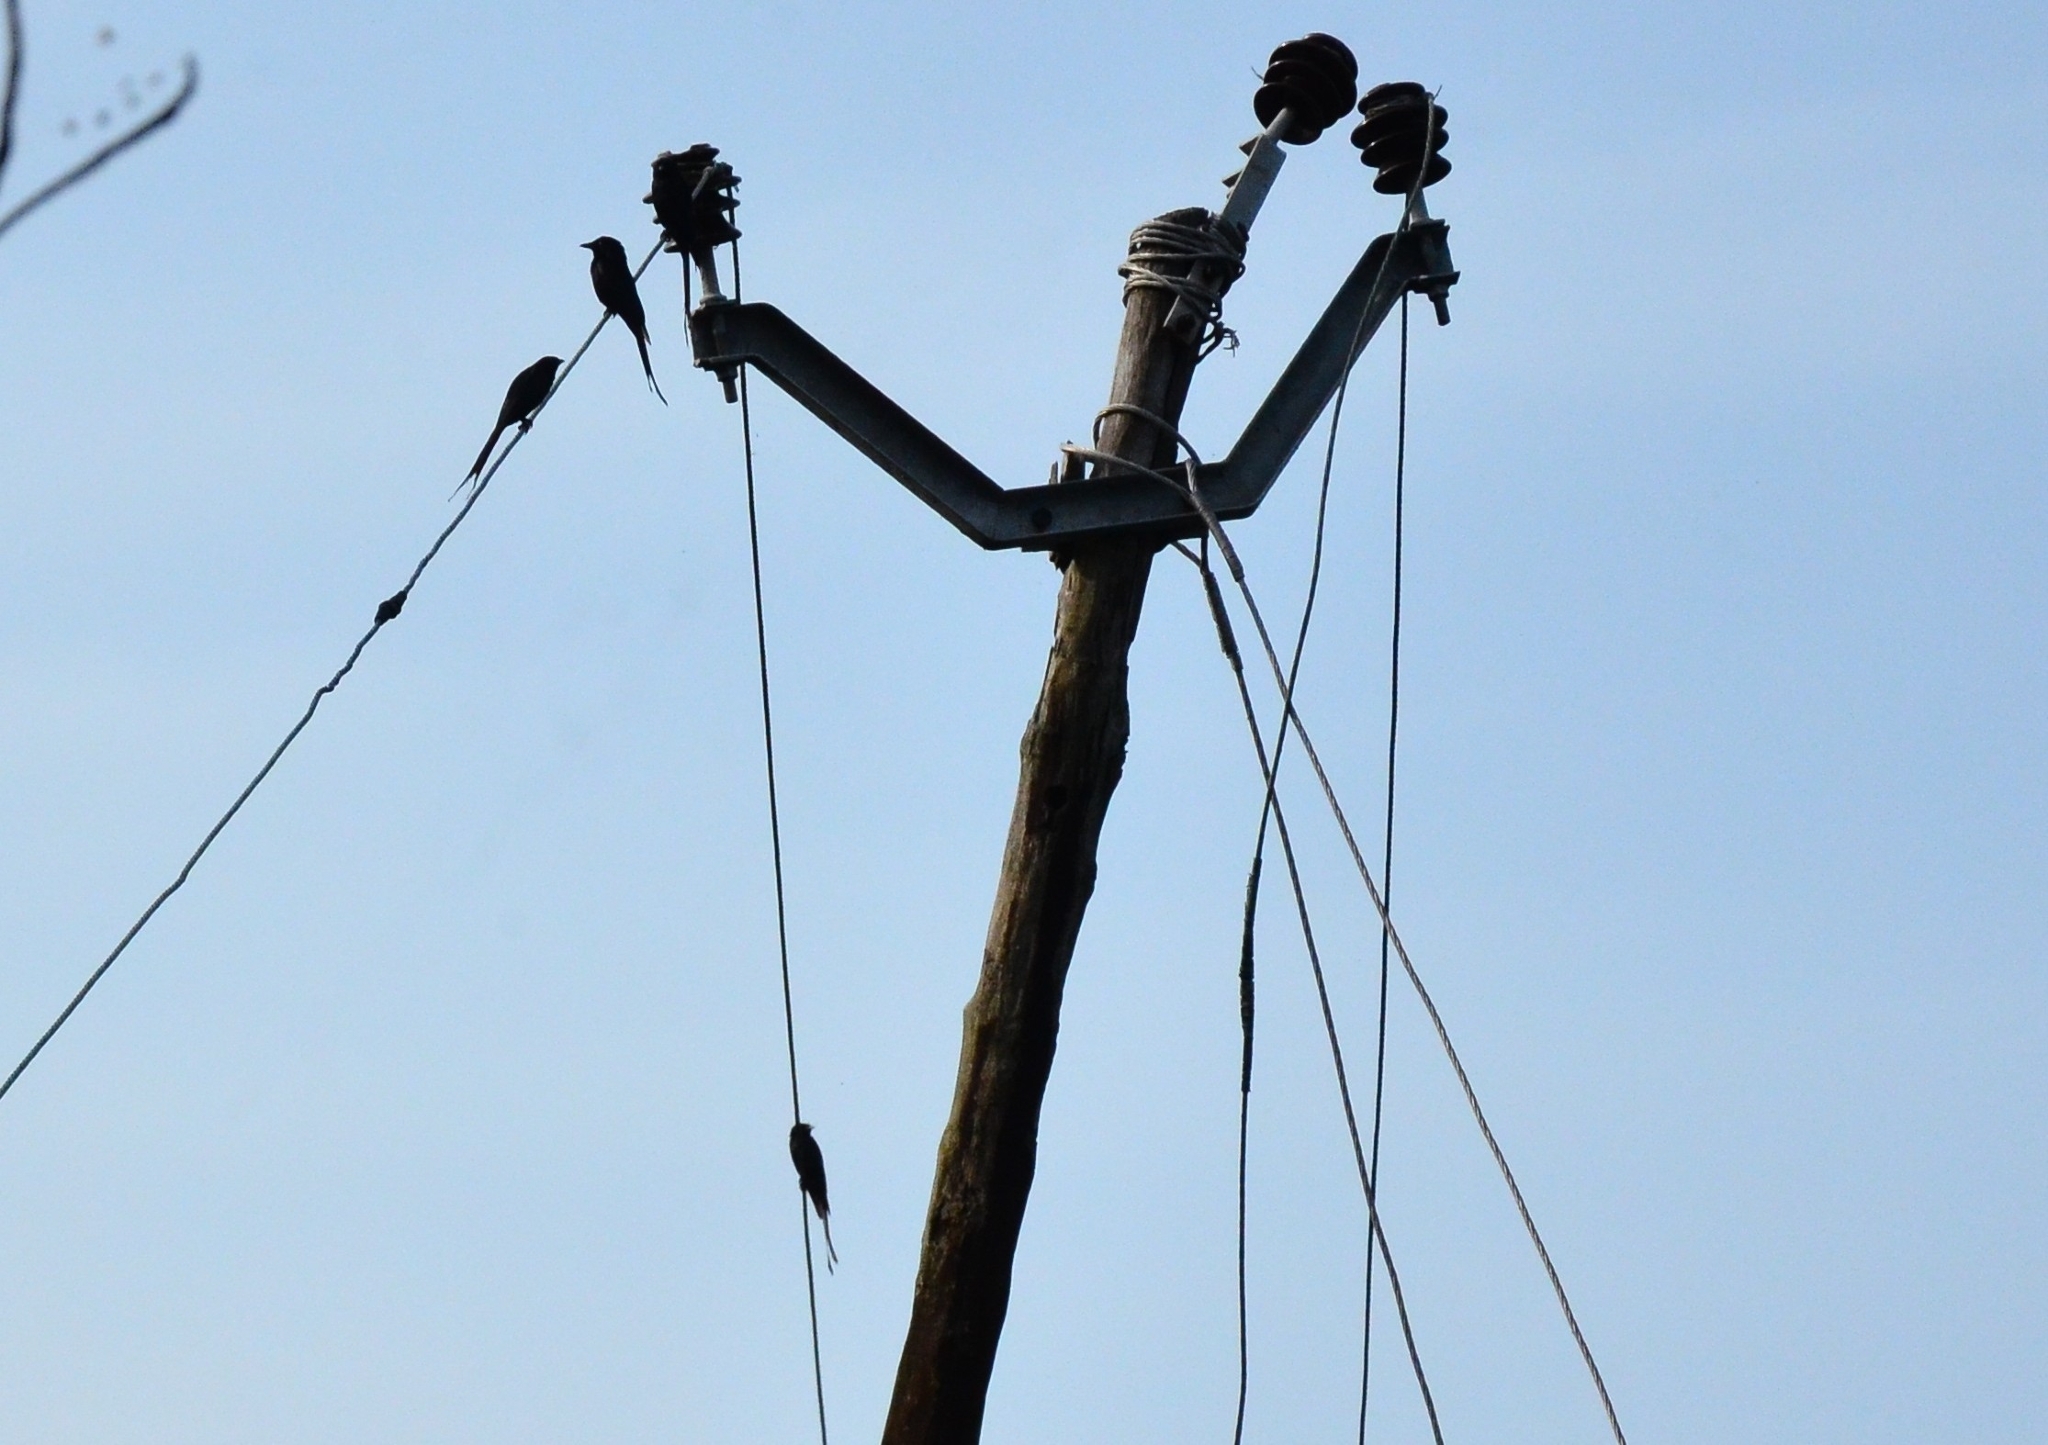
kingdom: Animalia
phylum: Chordata
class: Aves
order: Passeriformes
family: Dicruridae
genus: Dicrurus
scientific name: Dicrurus macrocercus
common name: Black drongo
